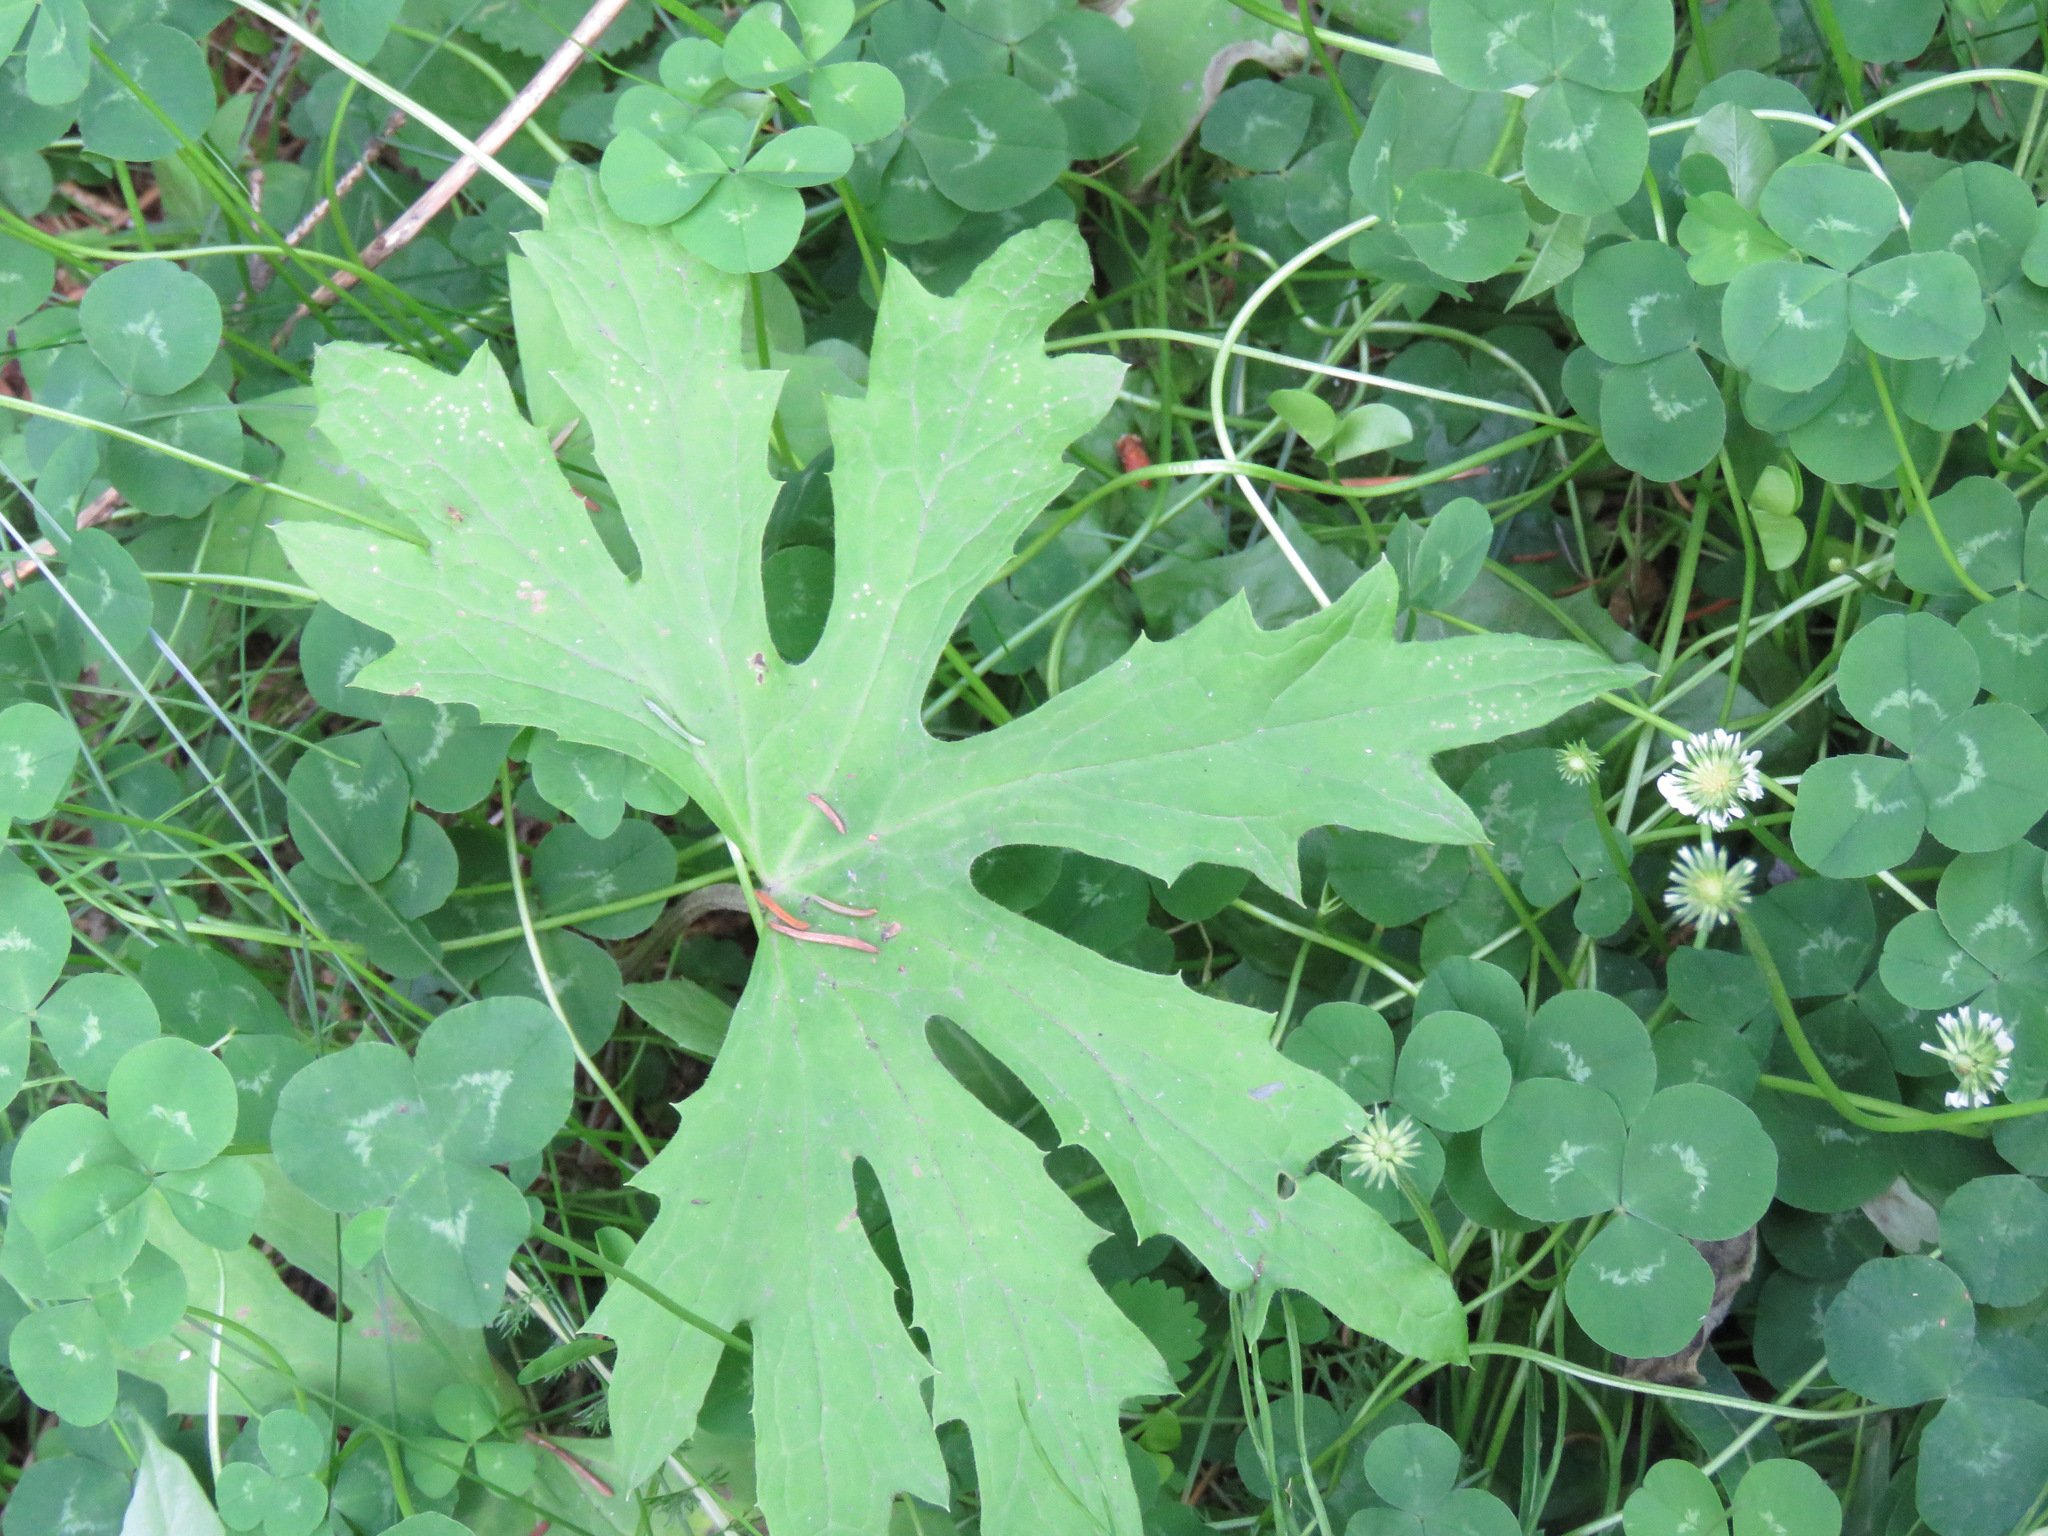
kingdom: Plantae
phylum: Tracheophyta
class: Magnoliopsida
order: Asterales
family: Asteraceae
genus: Petasites
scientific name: Petasites frigidus
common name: Arctic butterbur
